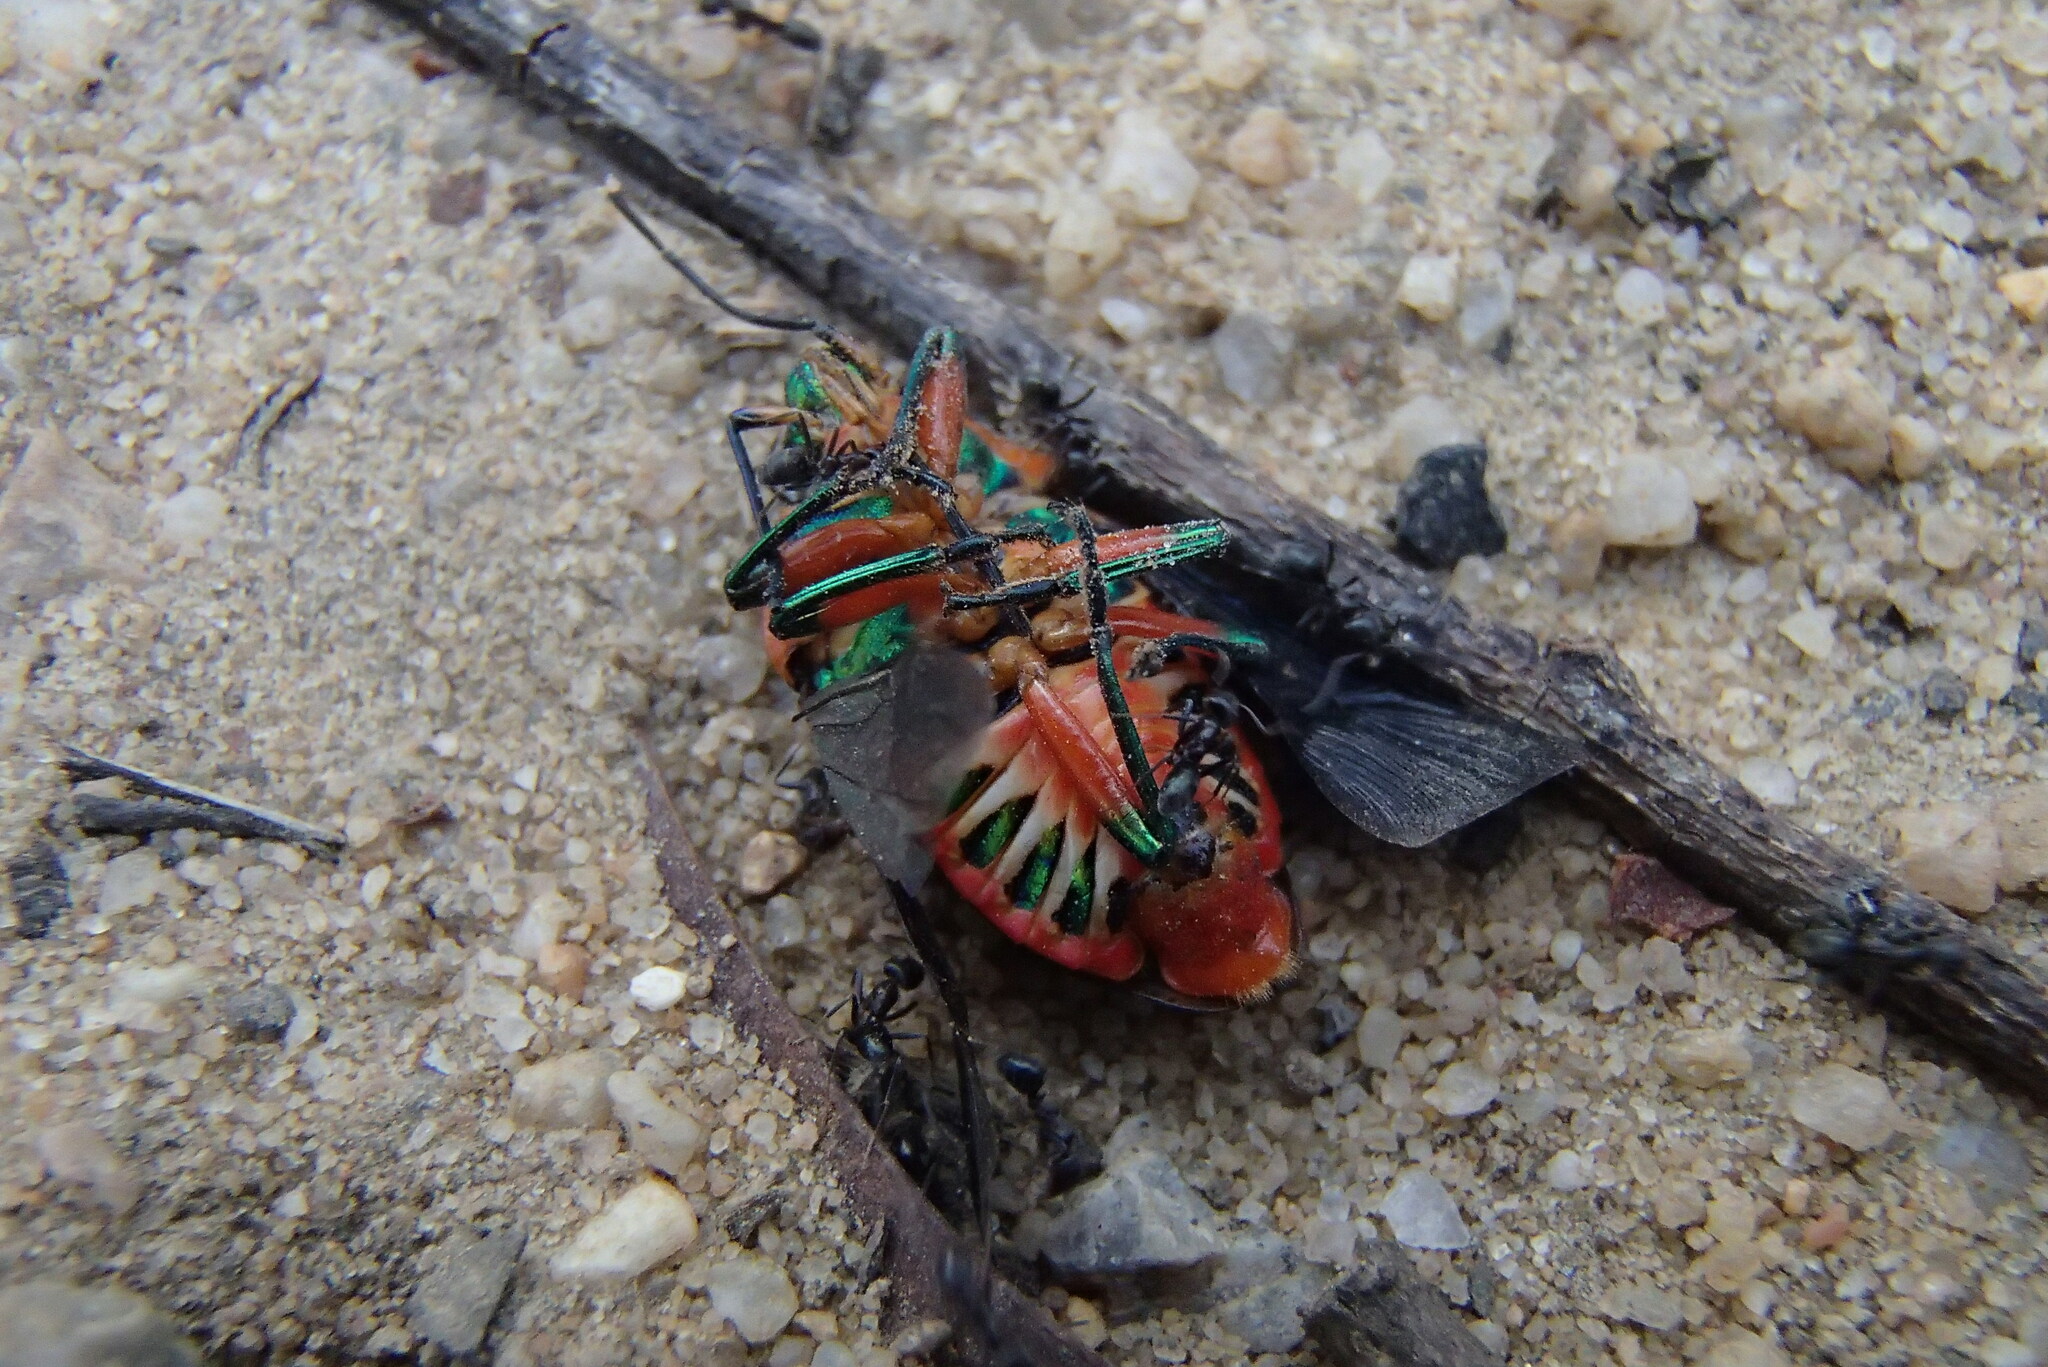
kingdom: Animalia
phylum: Arthropoda
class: Insecta
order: Hemiptera
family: Scutelleridae
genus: Scutiphora
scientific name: Scutiphora pedicellata
